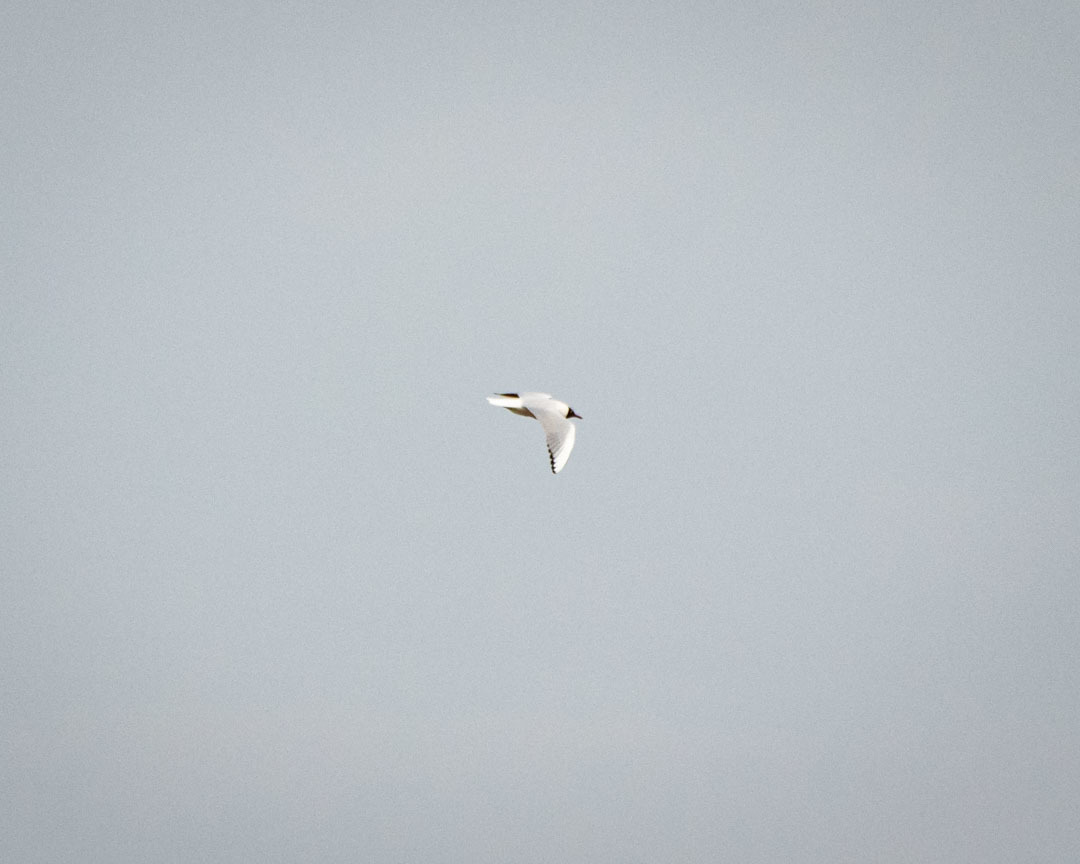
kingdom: Animalia
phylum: Chordata
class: Aves
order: Charadriiformes
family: Laridae
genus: Chroicocephalus
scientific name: Chroicocephalus ridibundus
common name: Black-headed gull
